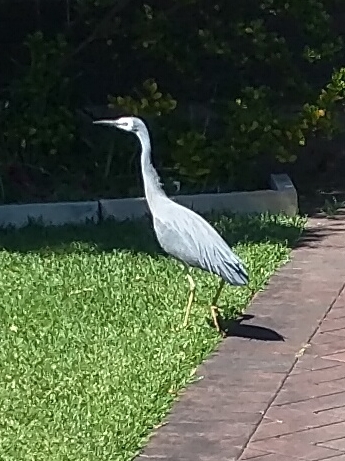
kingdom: Animalia
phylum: Chordata
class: Aves
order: Pelecaniformes
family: Ardeidae
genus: Egretta
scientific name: Egretta novaehollandiae
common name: White-faced heron
